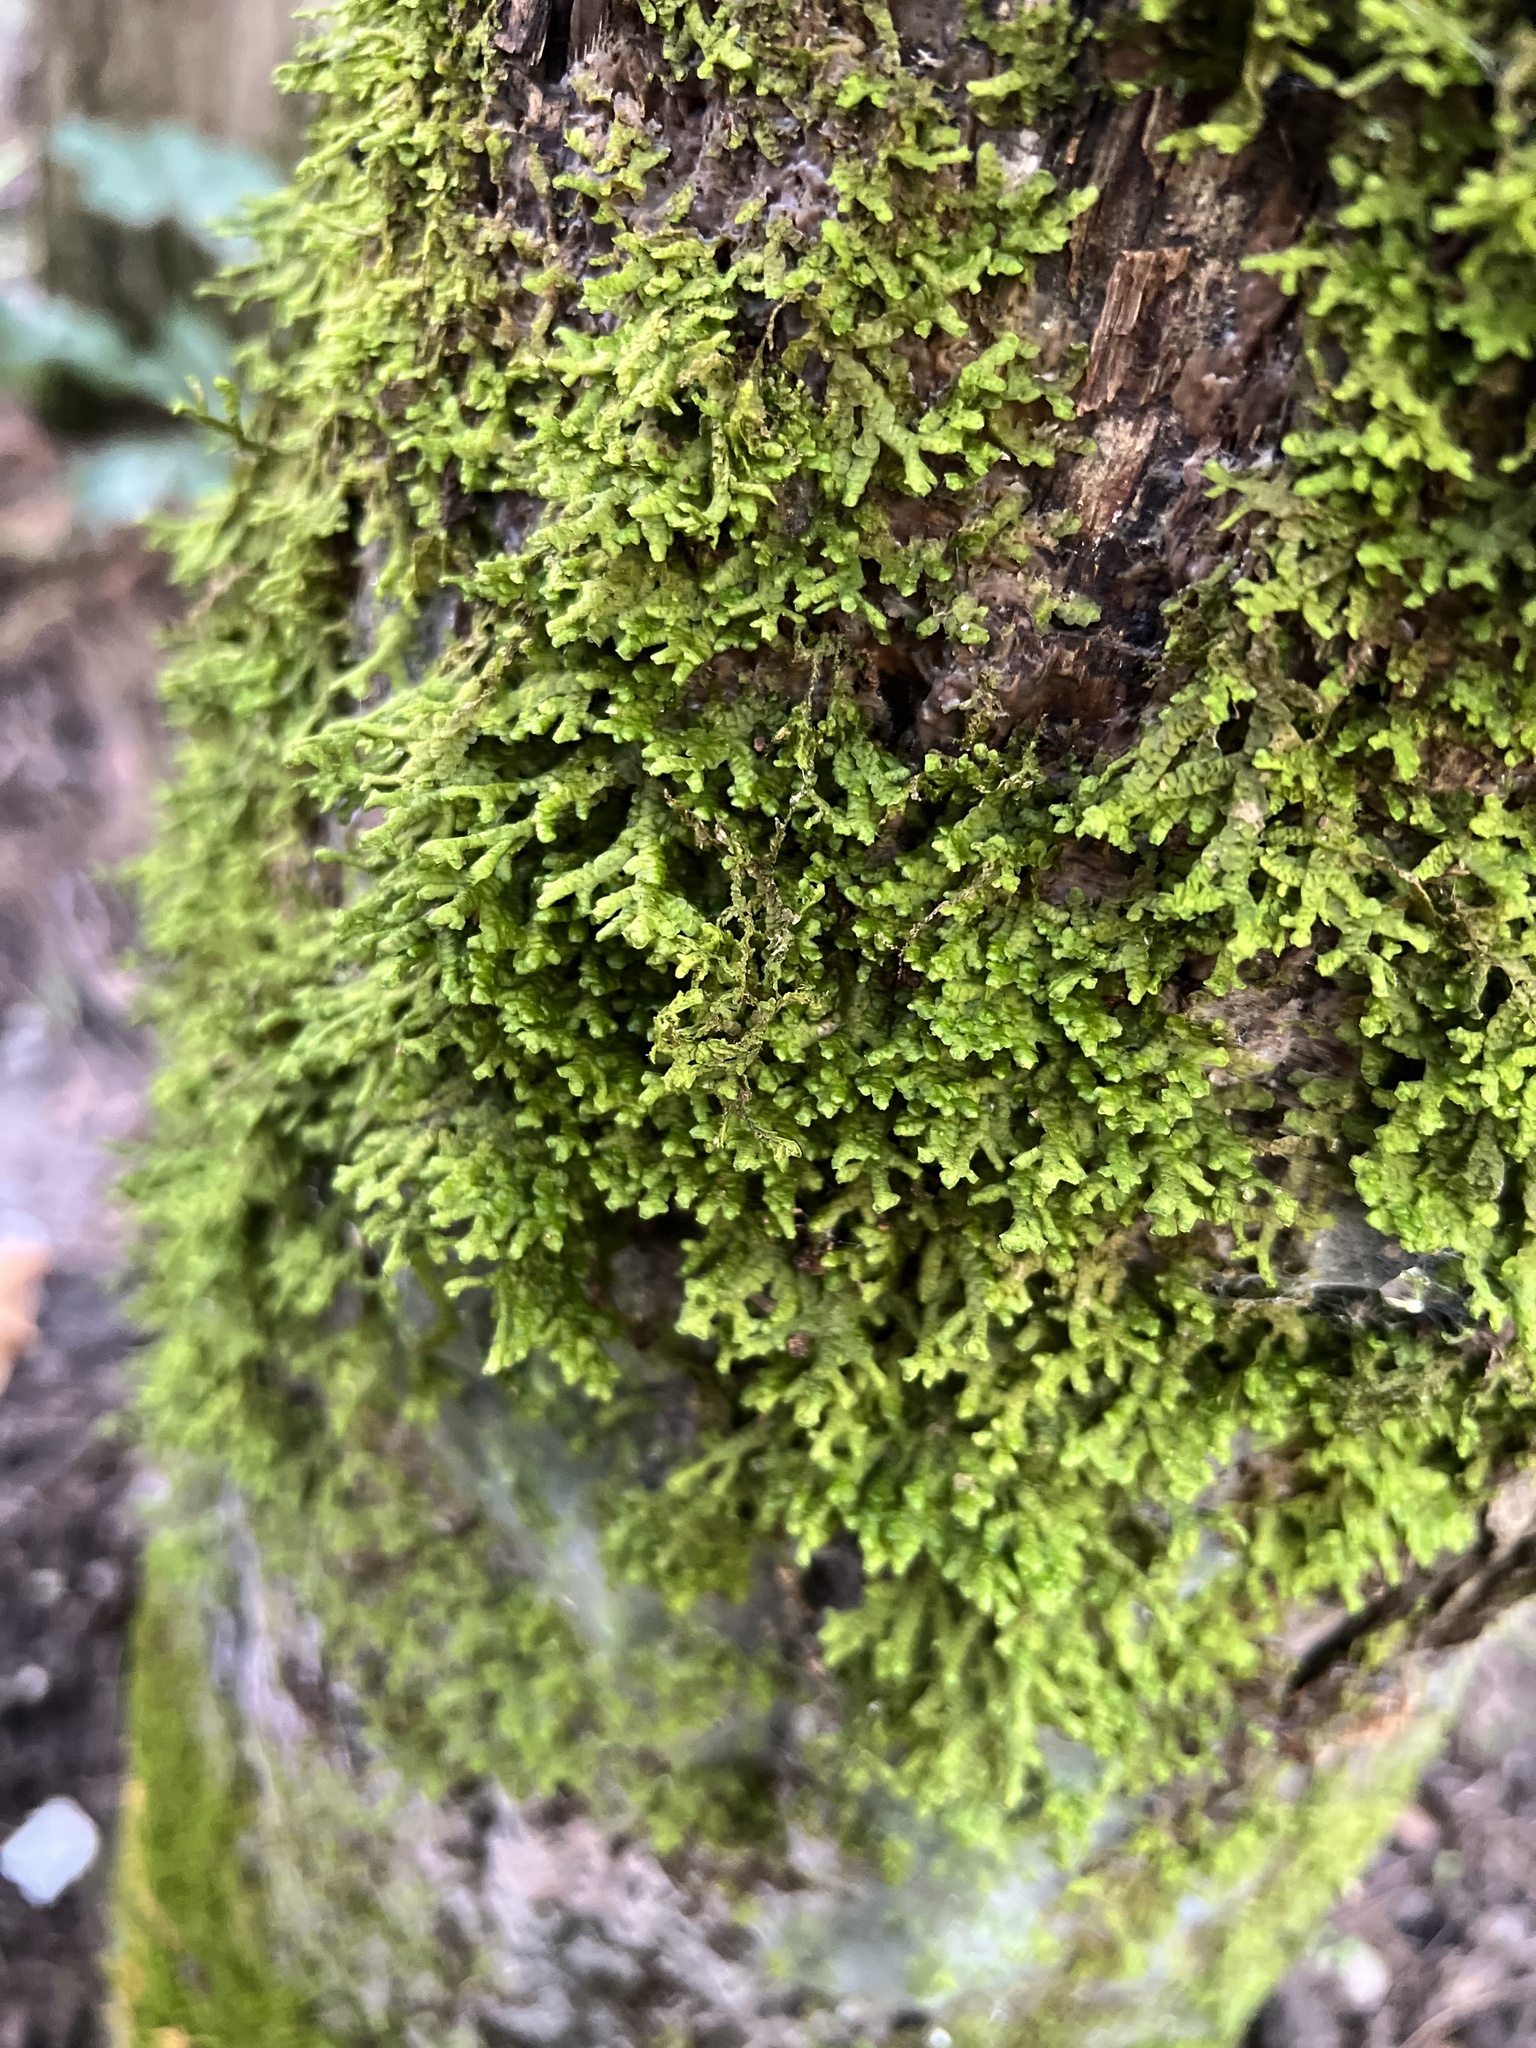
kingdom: Plantae
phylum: Marchantiophyta
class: Jungermanniopsida
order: Porellales
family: Porellaceae
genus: Porella
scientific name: Porella platyphylla
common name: Wall scalewort
